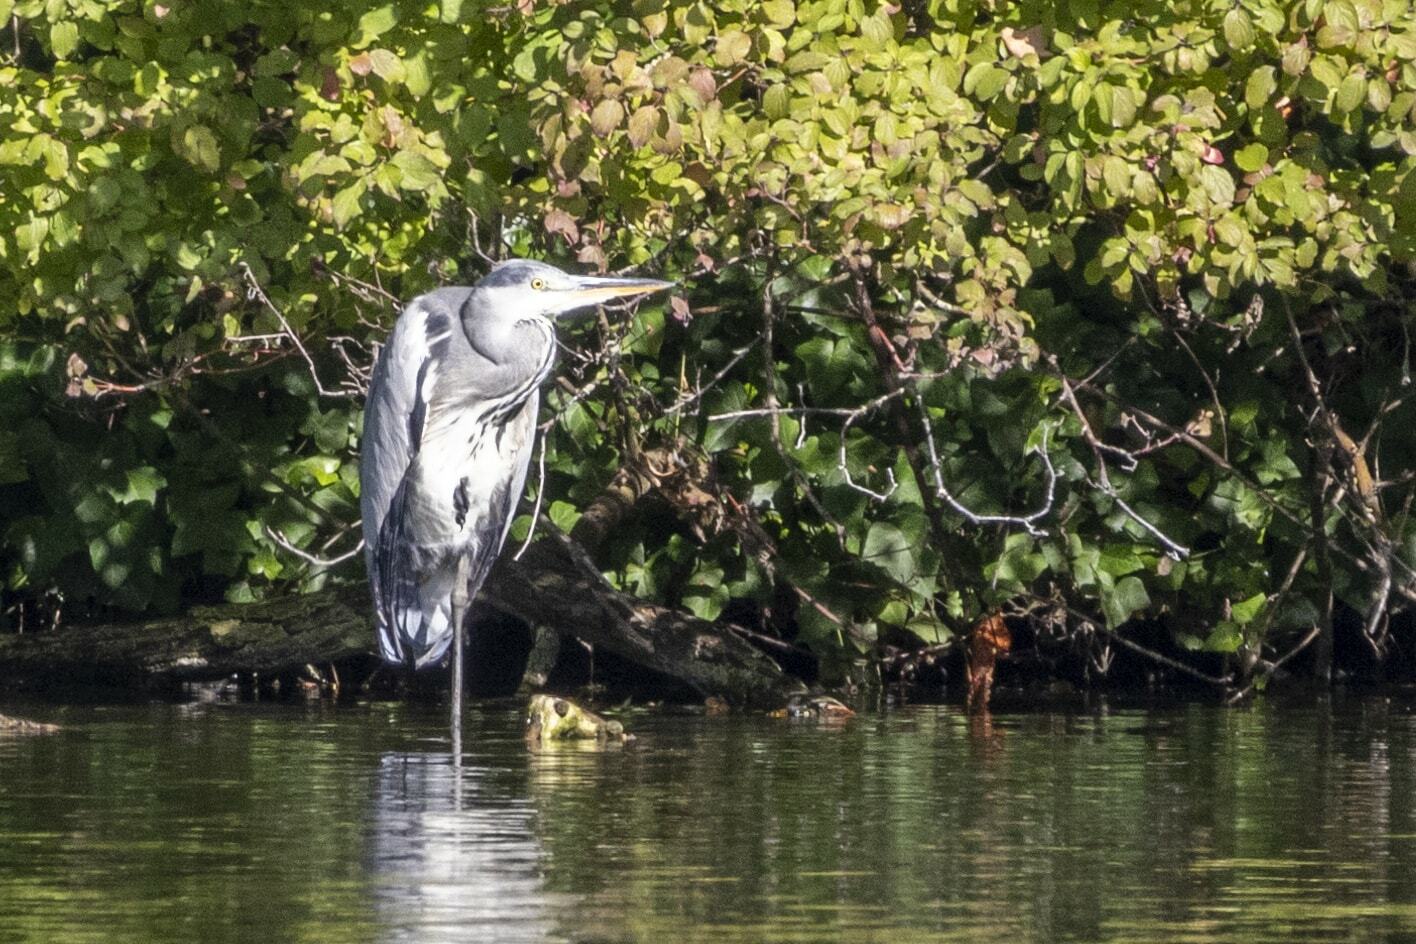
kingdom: Animalia
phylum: Chordata
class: Aves
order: Pelecaniformes
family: Ardeidae
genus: Ardea
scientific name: Ardea cinerea
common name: Grey heron
